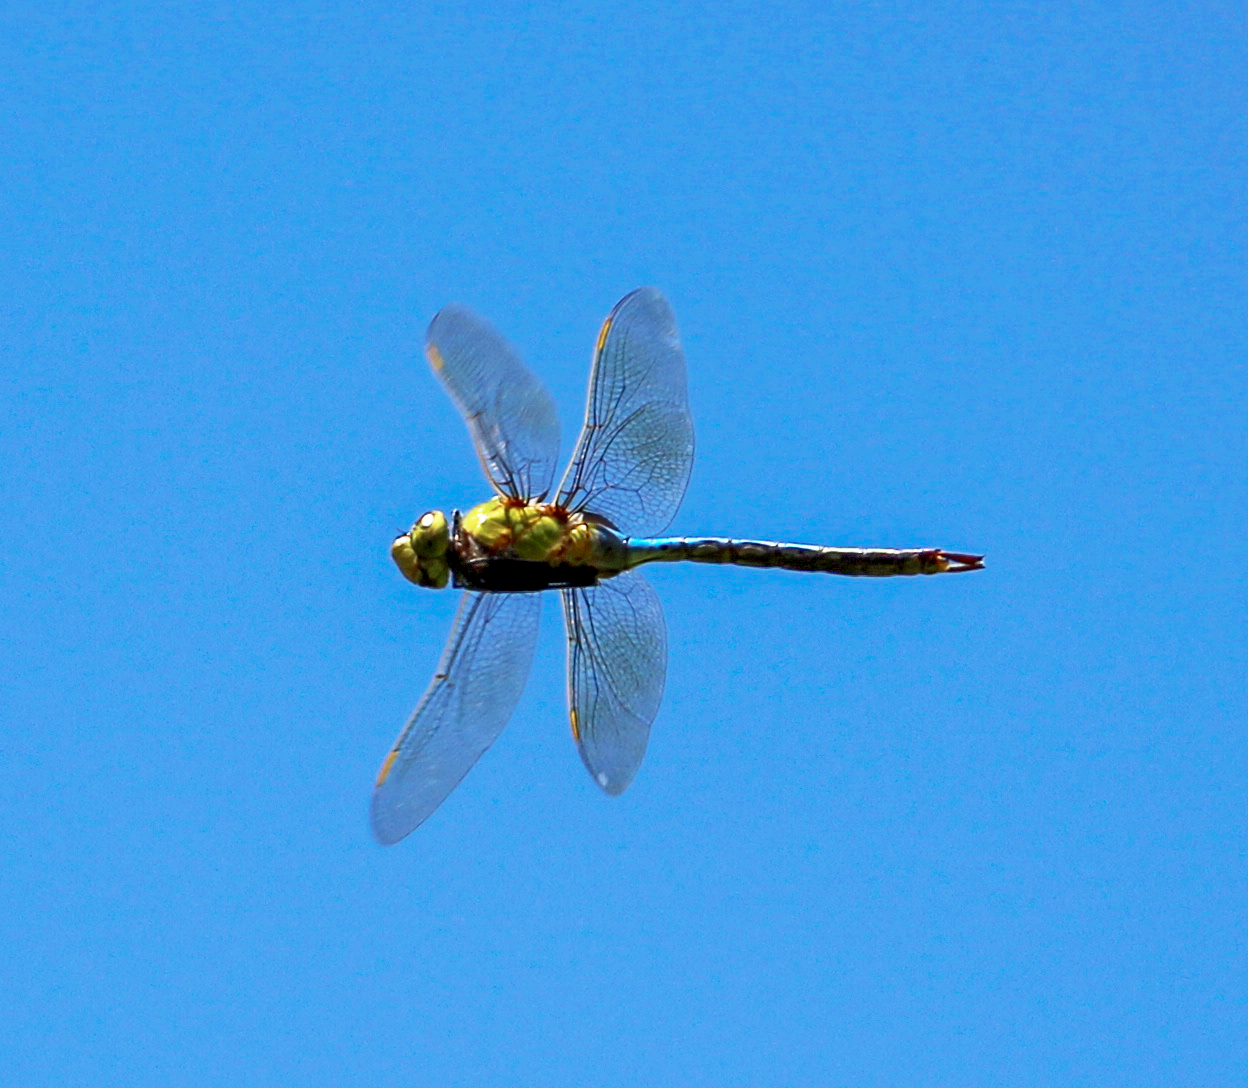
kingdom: Animalia
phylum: Arthropoda
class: Insecta
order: Odonata
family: Aeshnidae
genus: Anax
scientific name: Anax junius
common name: Common green darner
